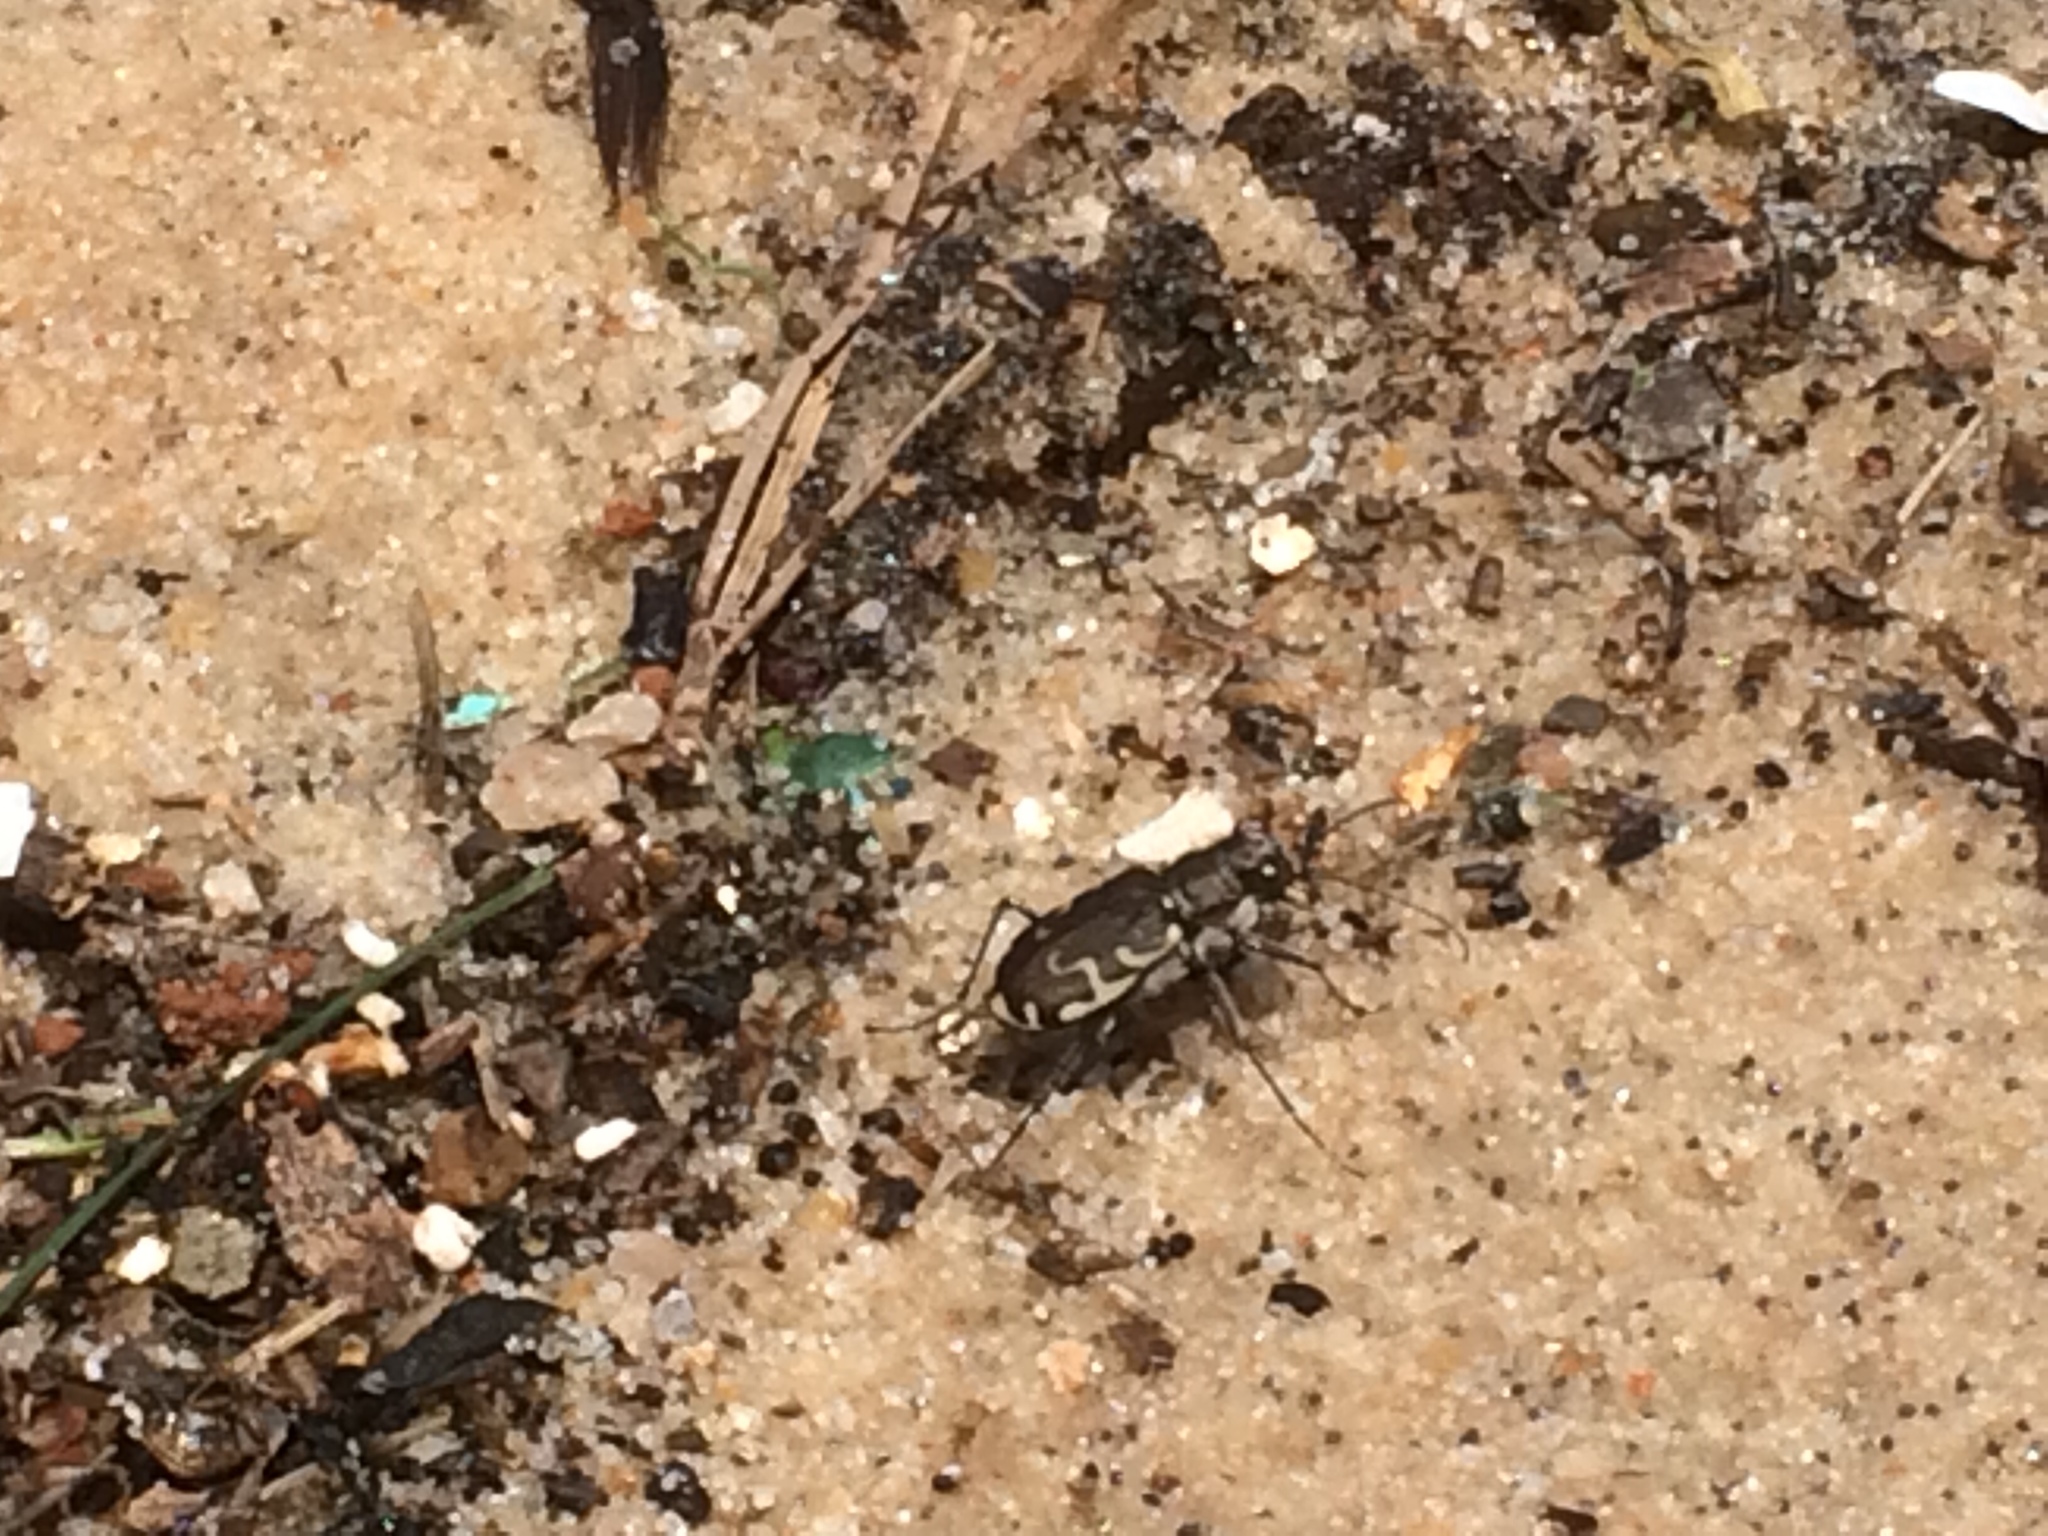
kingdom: Animalia
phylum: Arthropoda
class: Insecta
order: Coleoptera
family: Carabidae
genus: Cicindela
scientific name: Cicindela repanda
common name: Bronzed tiger beetle
